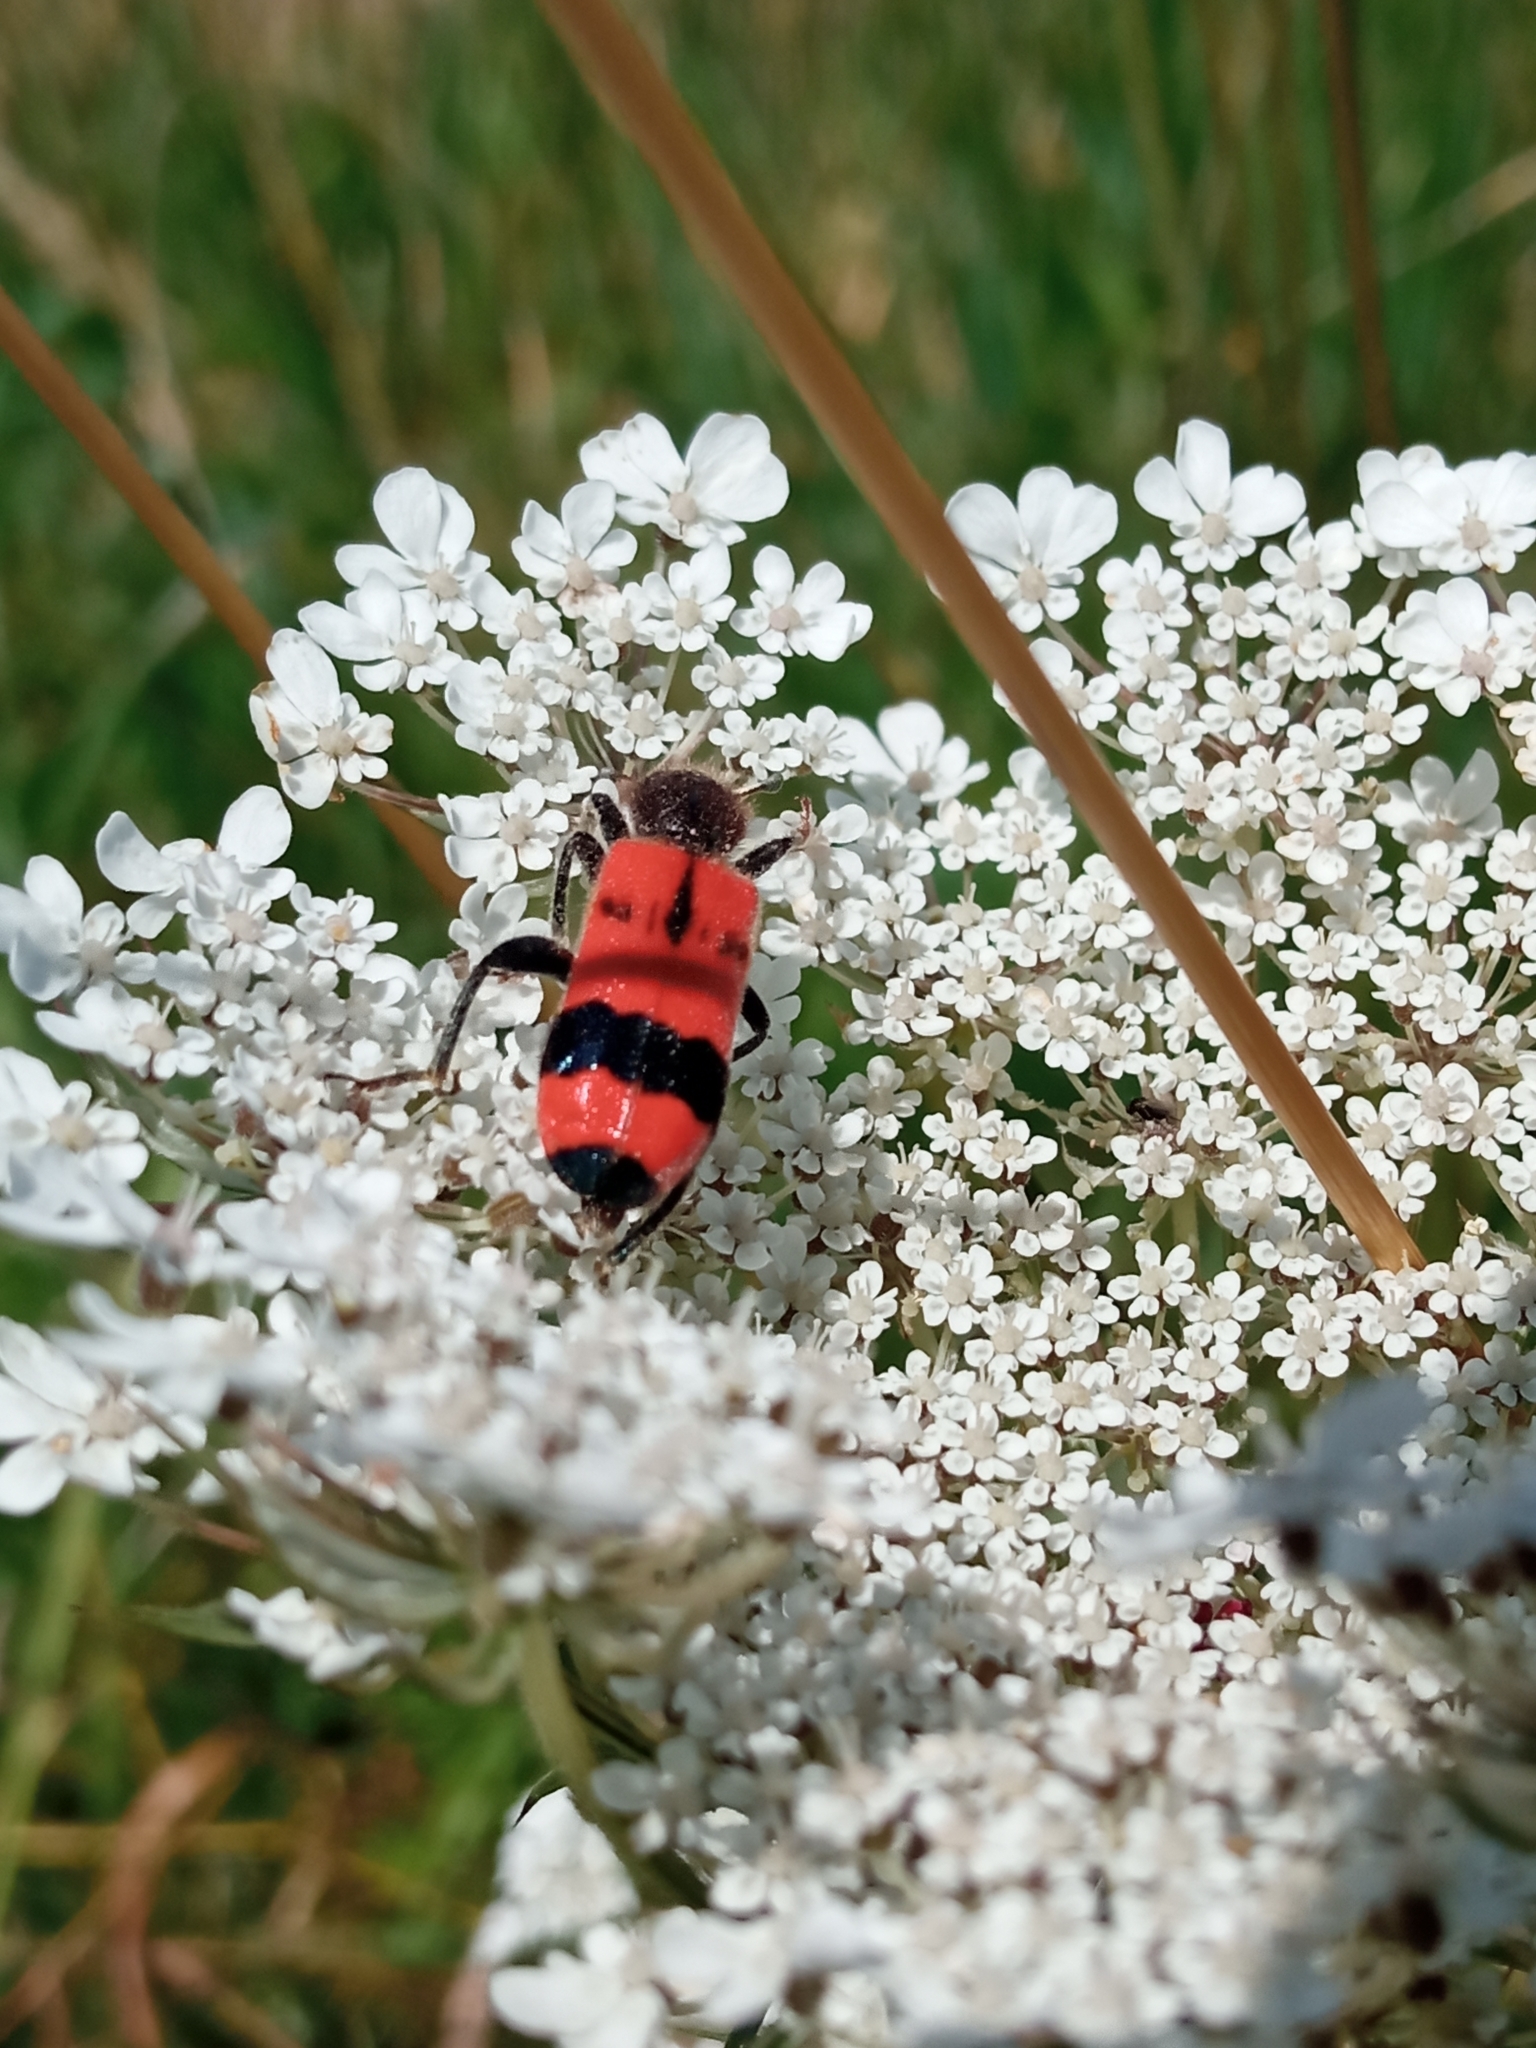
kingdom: Animalia
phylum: Arthropoda
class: Insecta
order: Coleoptera
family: Cleridae
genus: Trichodes
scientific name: Trichodes apiarius
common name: Bee-eating beetle
